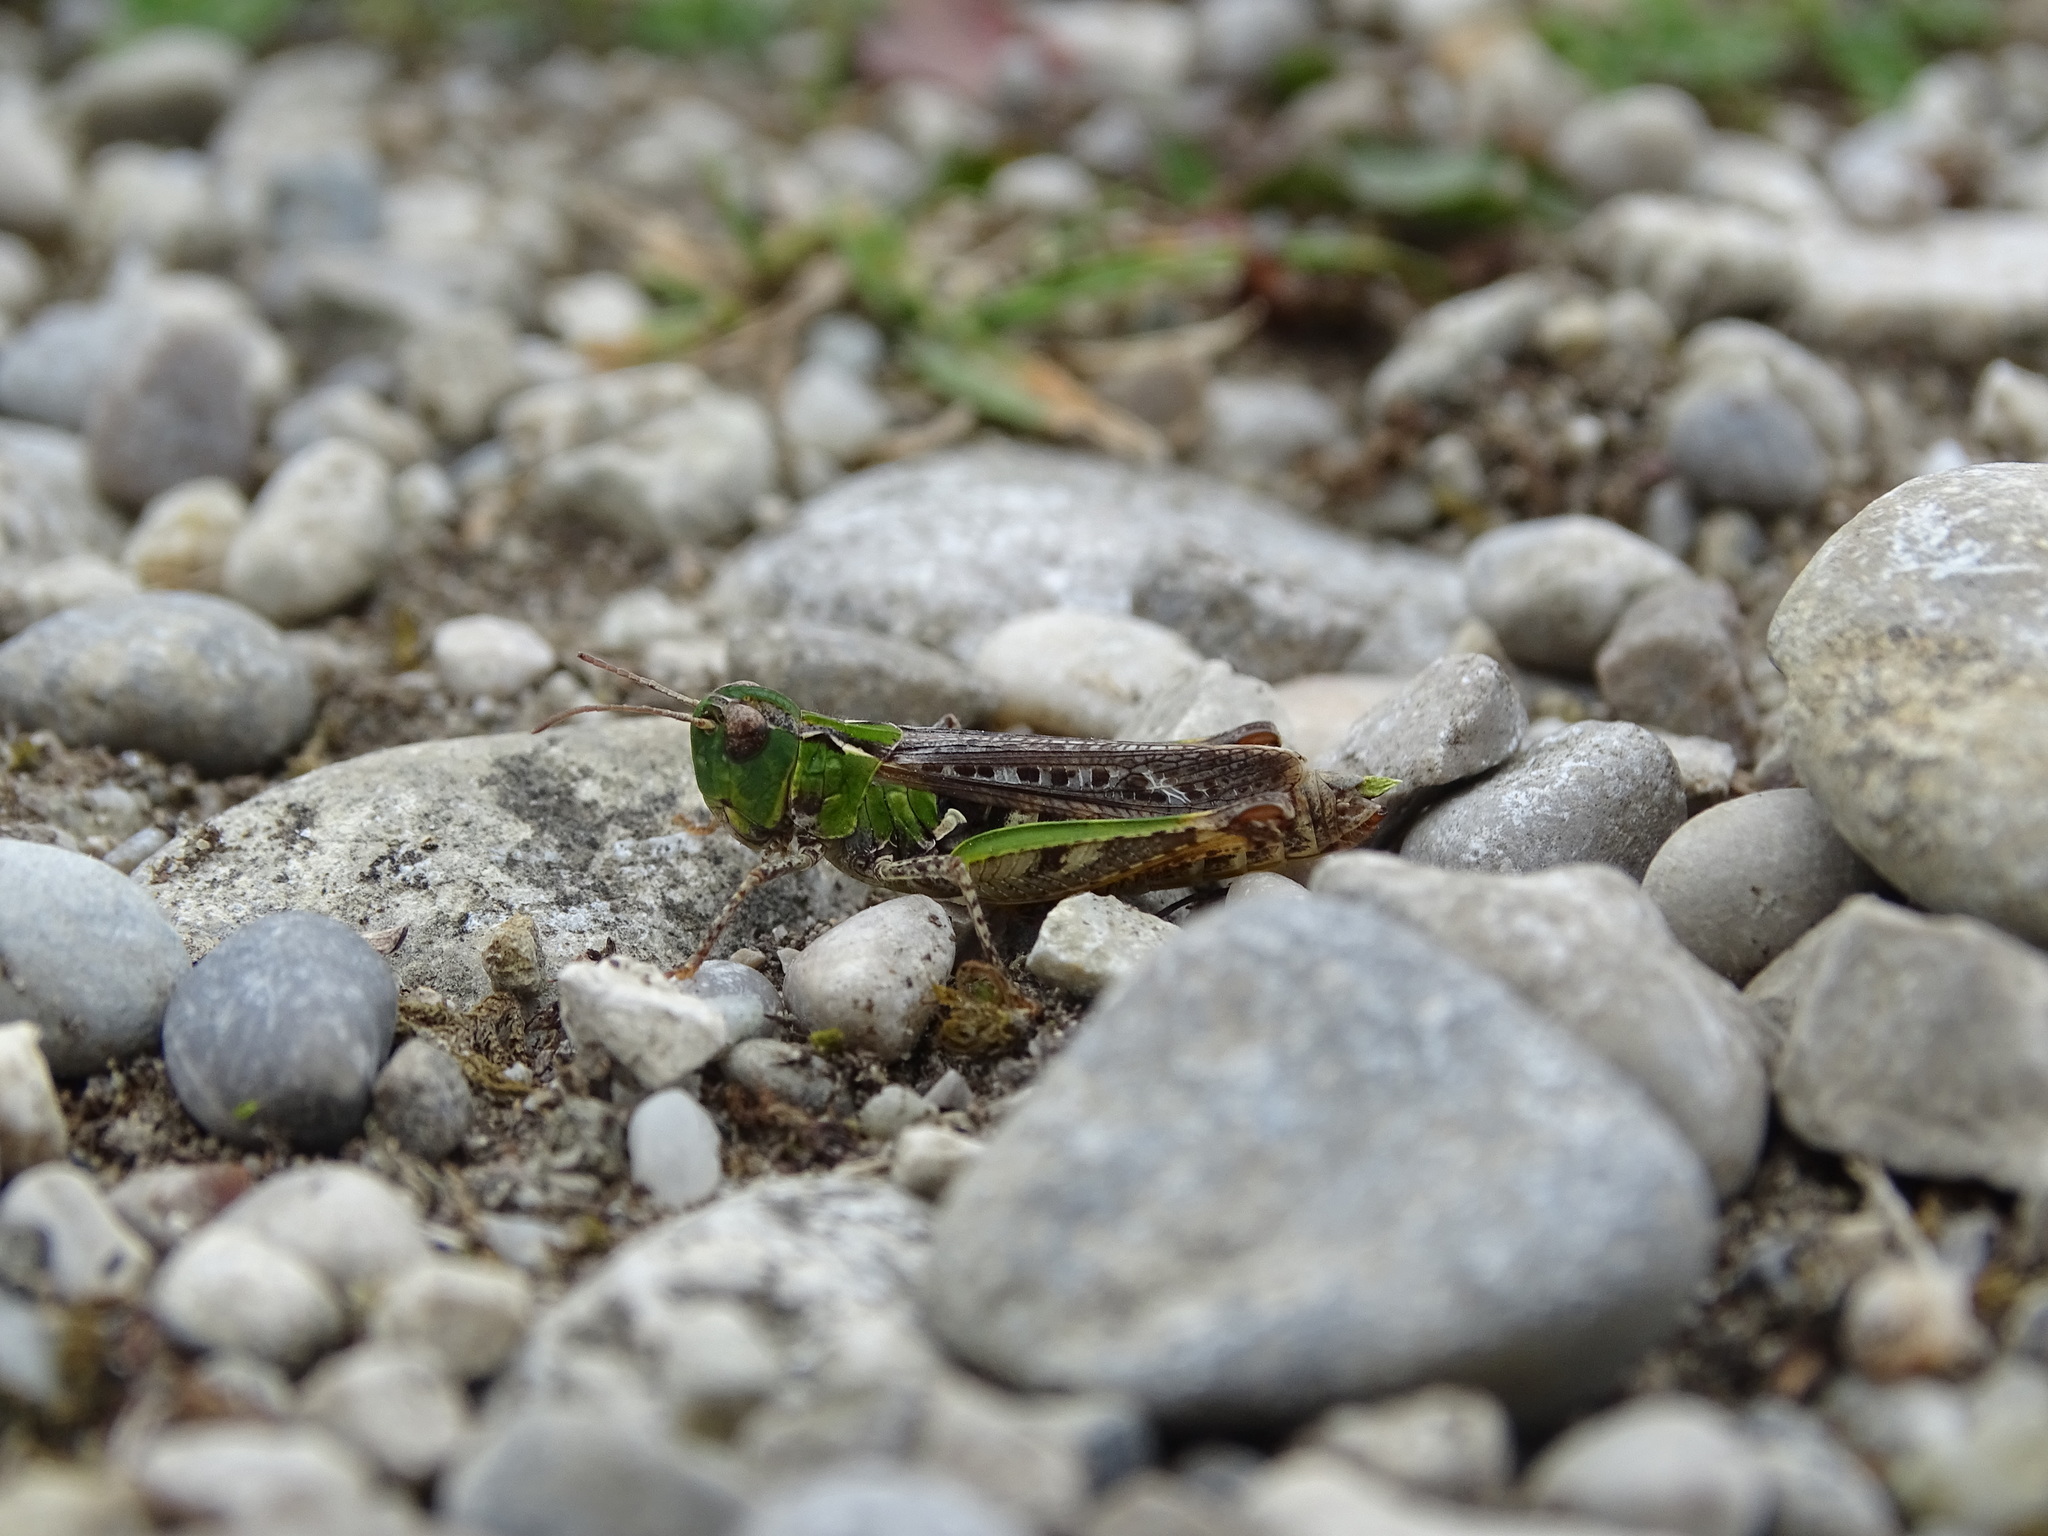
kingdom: Animalia
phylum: Arthropoda
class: Insecta
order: Orthoptera
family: Acrididae
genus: Myrmeleotettix
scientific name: Myrmeleotettix maculatus
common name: Mottled grasshopper
